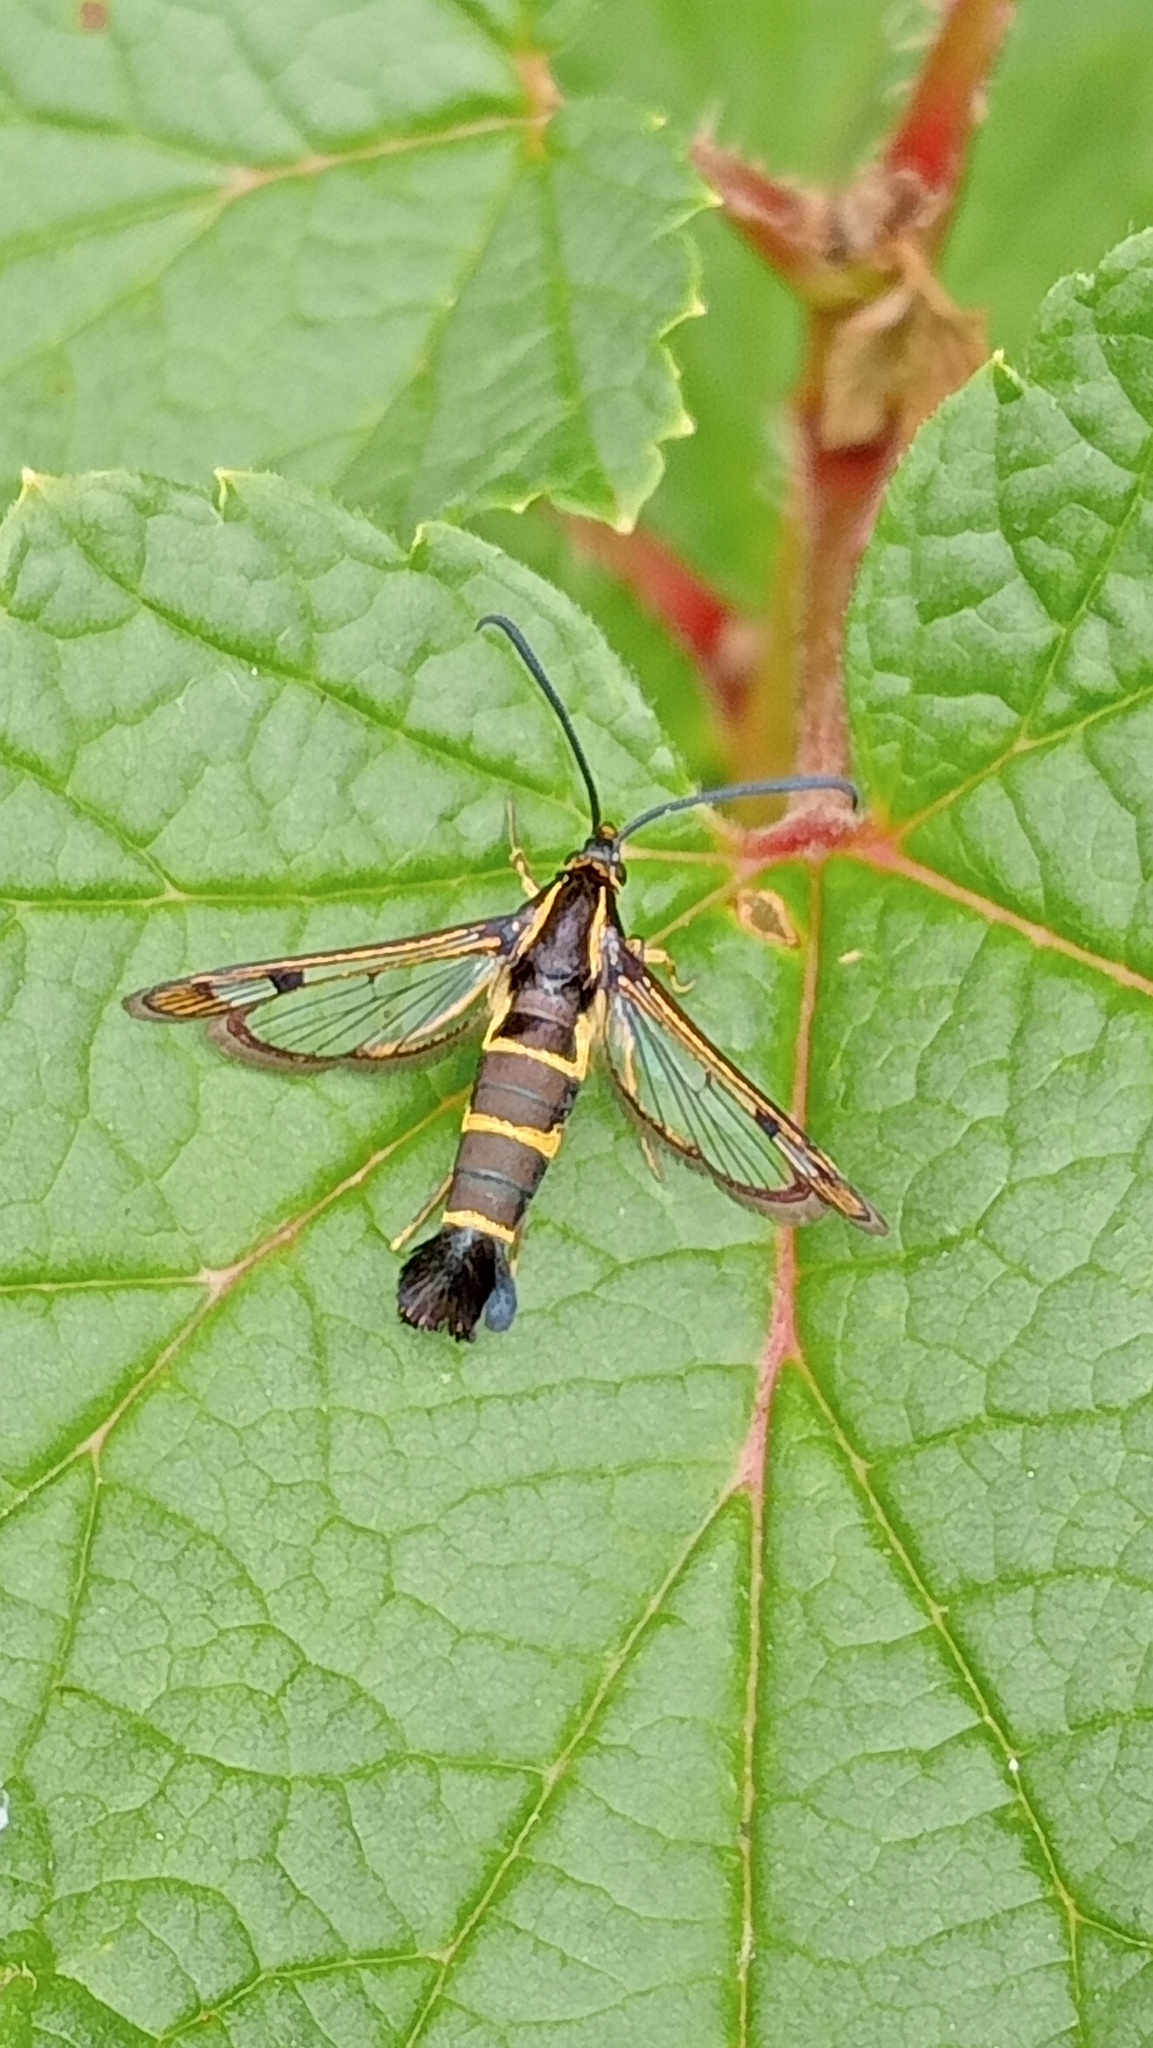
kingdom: Animalia
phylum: Arthropoda
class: Insecta
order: Lepidoptera
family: Sesiidae
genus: Synanthedon
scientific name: Synanthedon tipuliformis
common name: Currant clearwing
